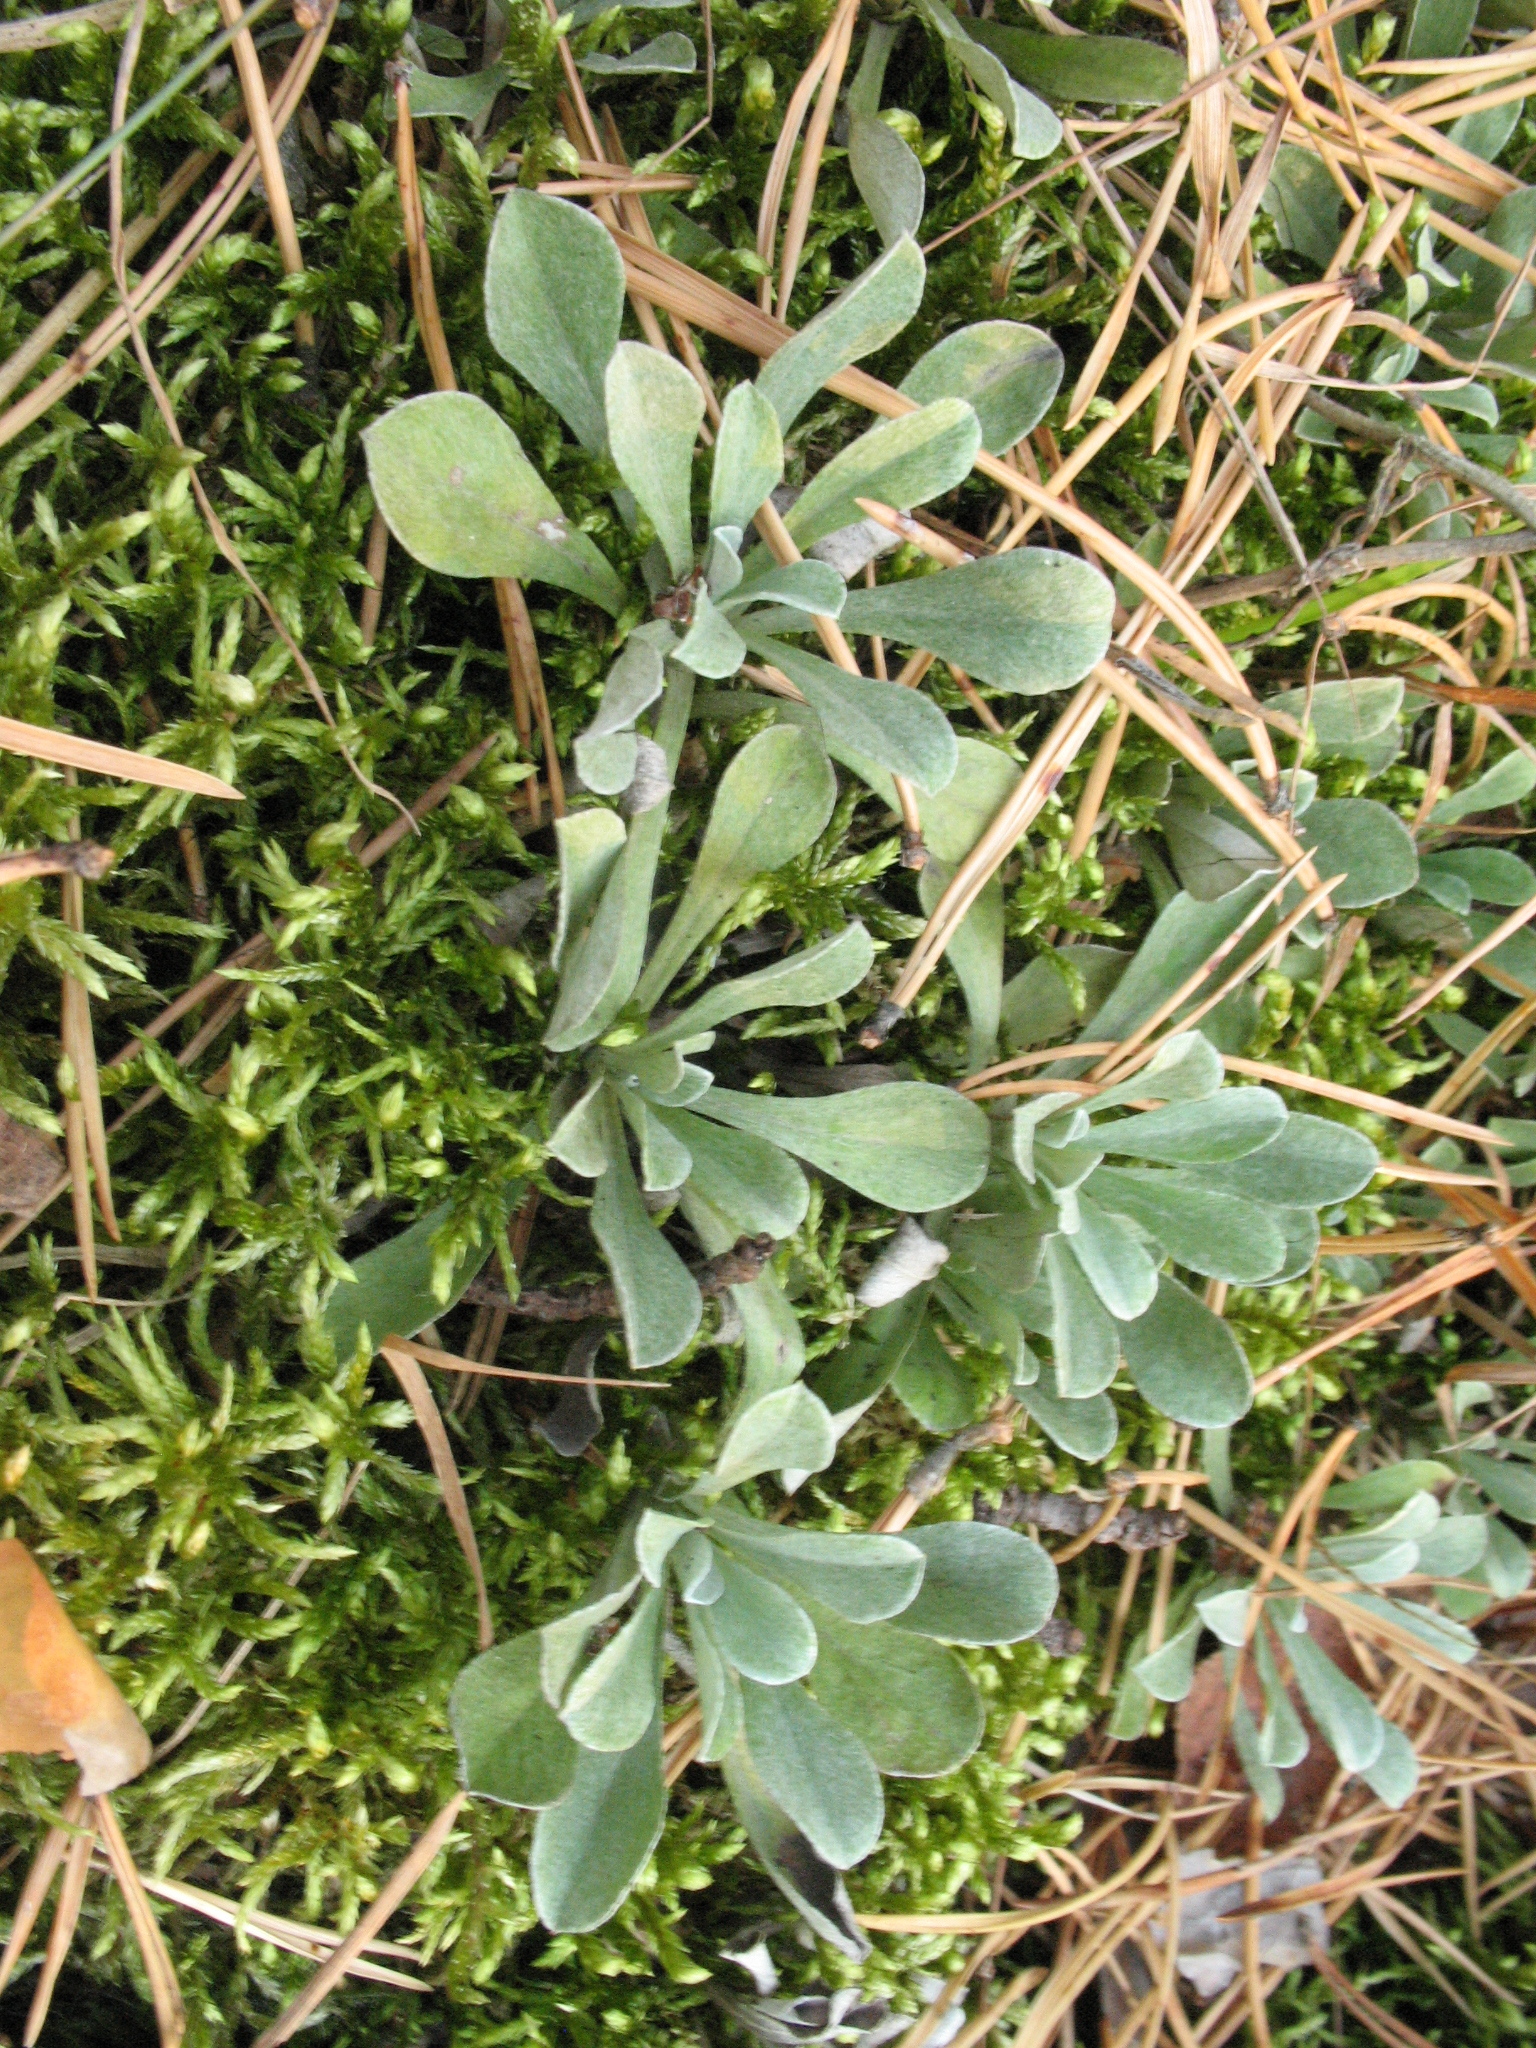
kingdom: Plantae
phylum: Tracheophyta
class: Magnoliopsida
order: Asterales
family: Asteraceae
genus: Antennaria
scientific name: Antennaria dioica
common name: Mountain everlasting
